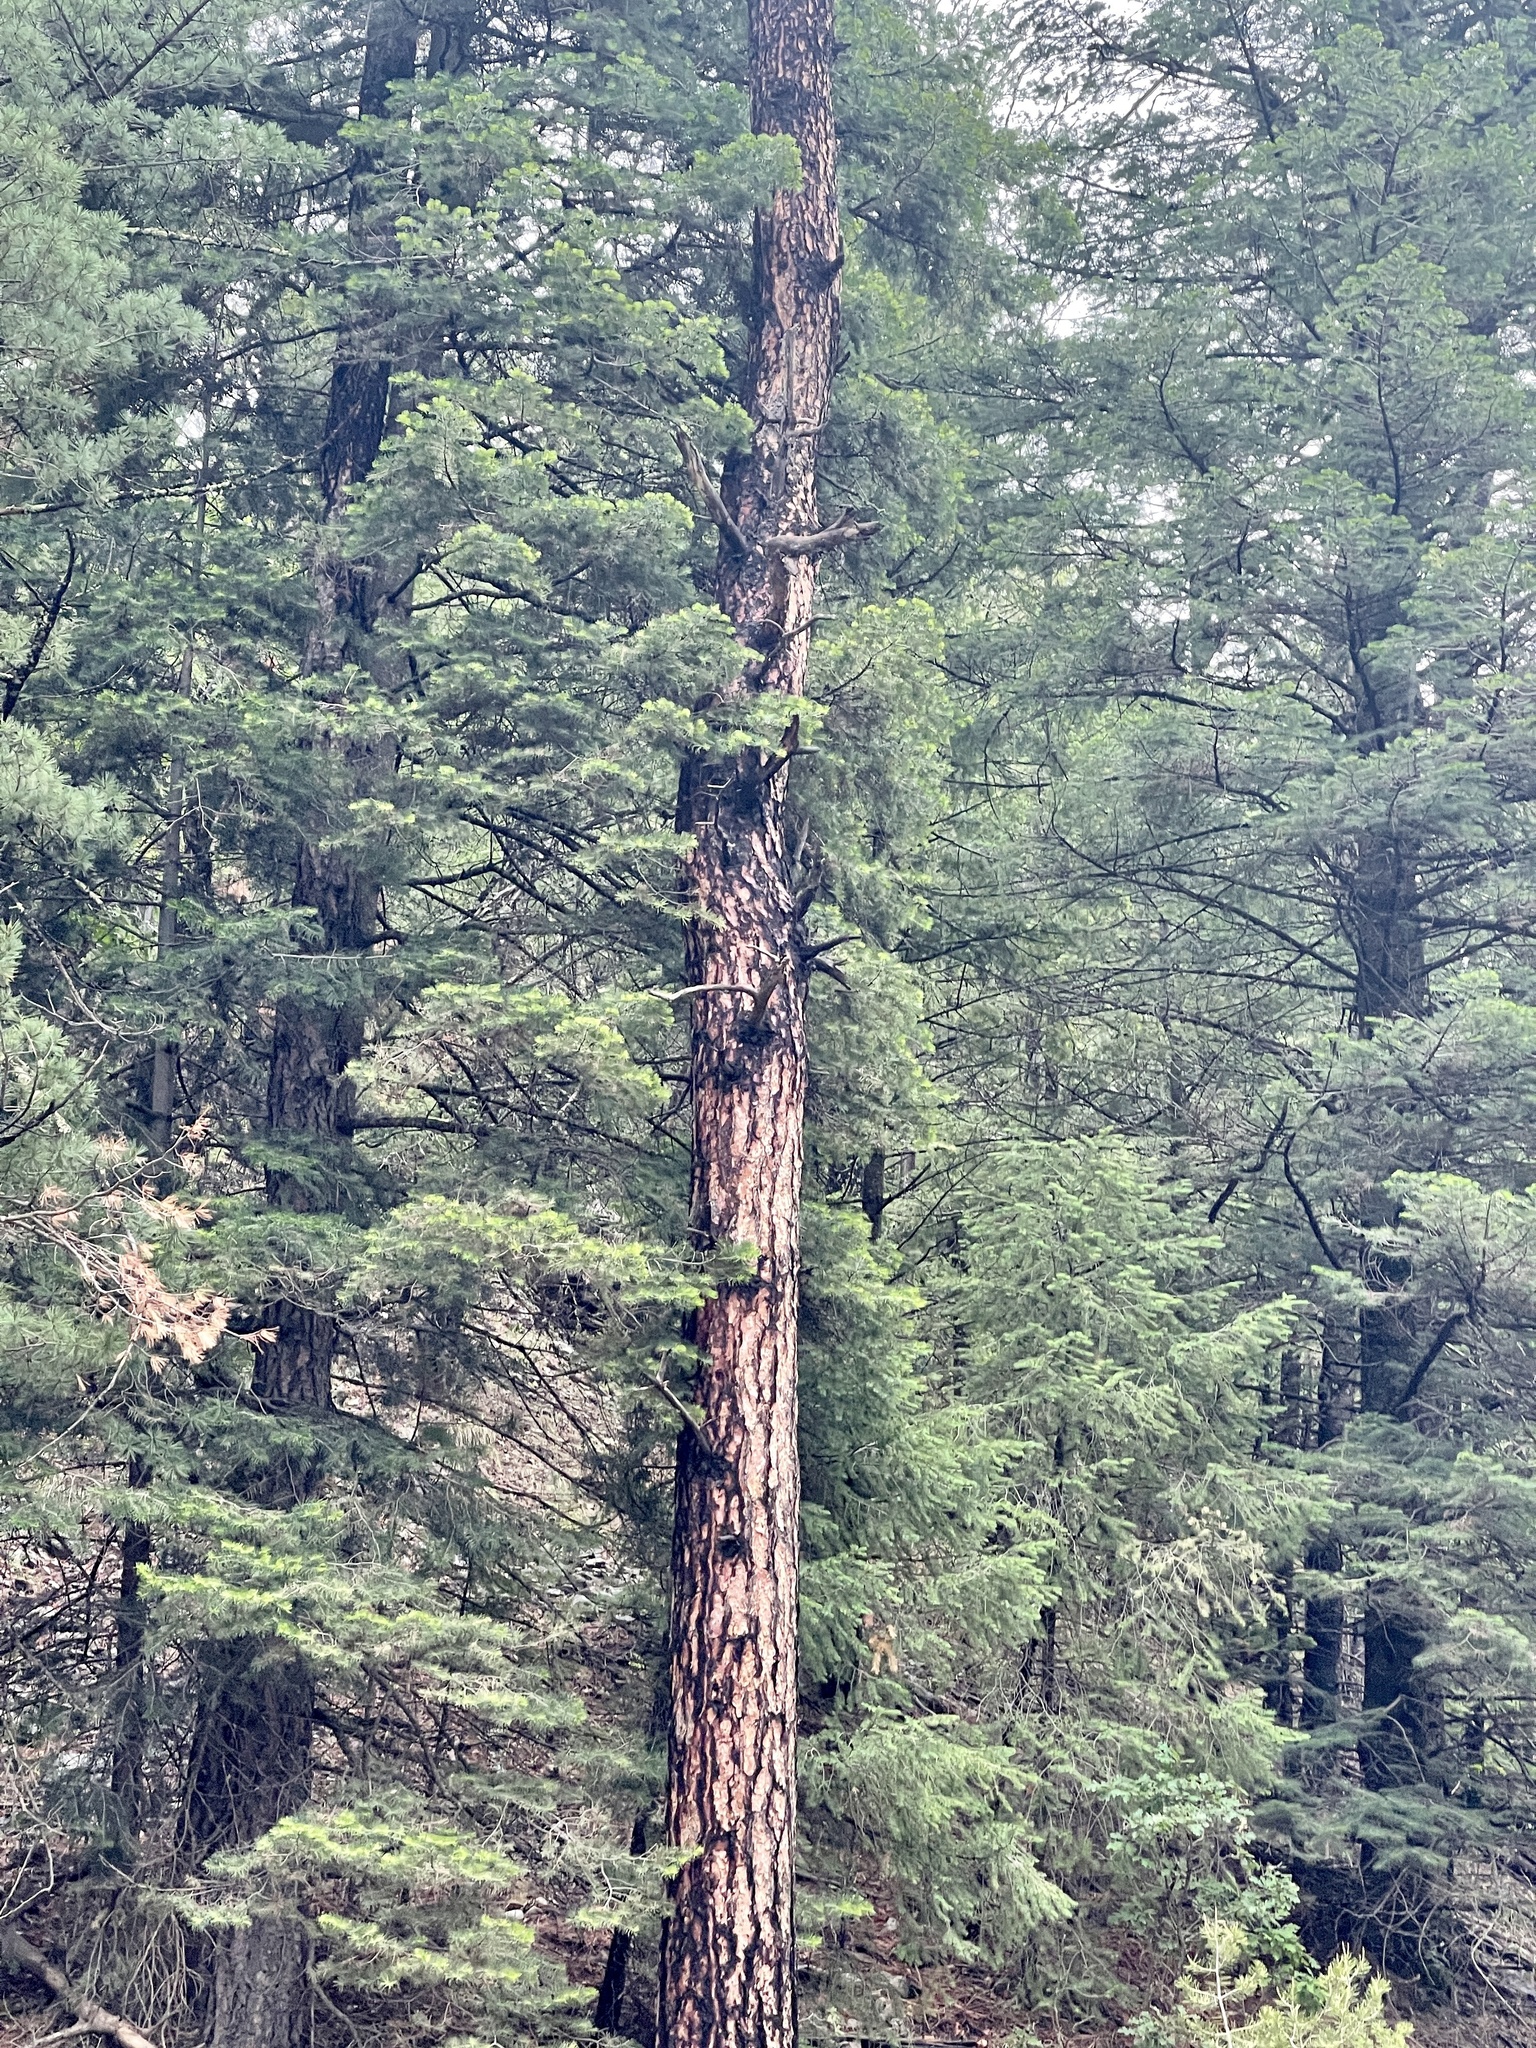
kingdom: Plantae
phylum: Tracheophyta
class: Pinopsida
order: Pinales
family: Pinaceae
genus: Pinus
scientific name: Pinus ponderosa
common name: Western yellow-pine
